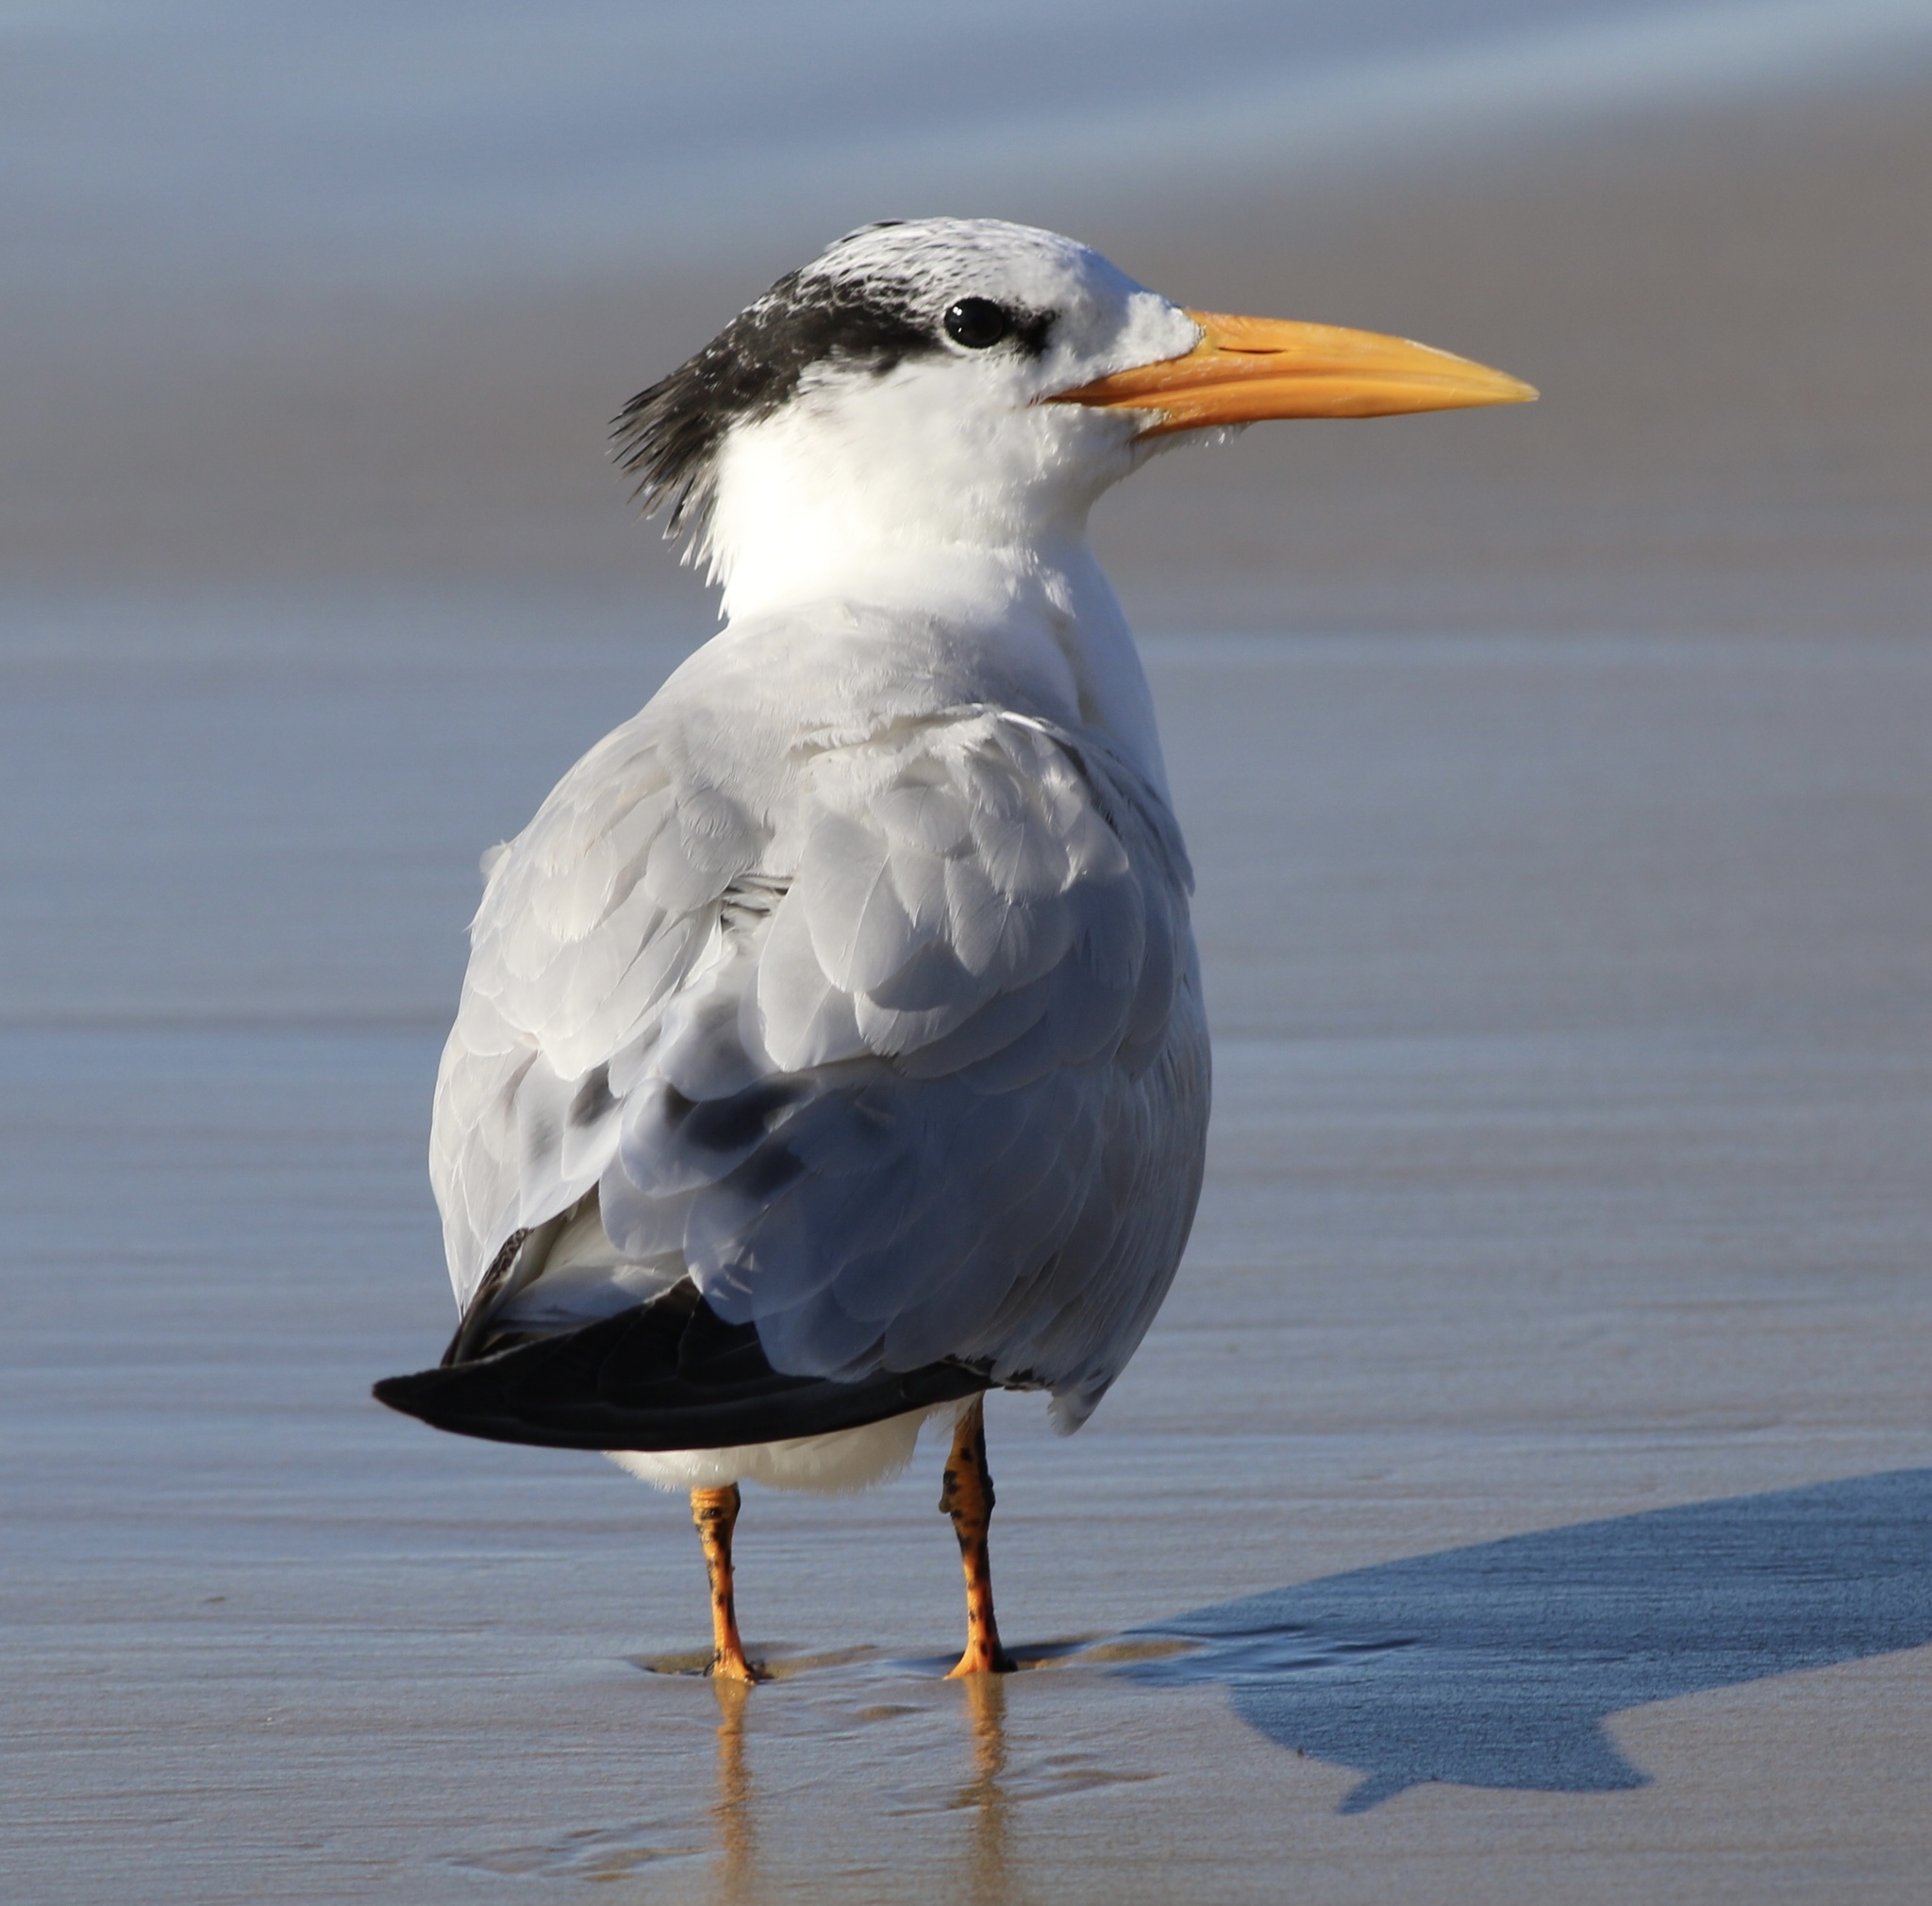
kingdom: Animalia
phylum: Chordata
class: Aves
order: Charadriiformes
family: Laridae
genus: Thalasseus
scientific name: Thalasseus maximus
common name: Royal tern
